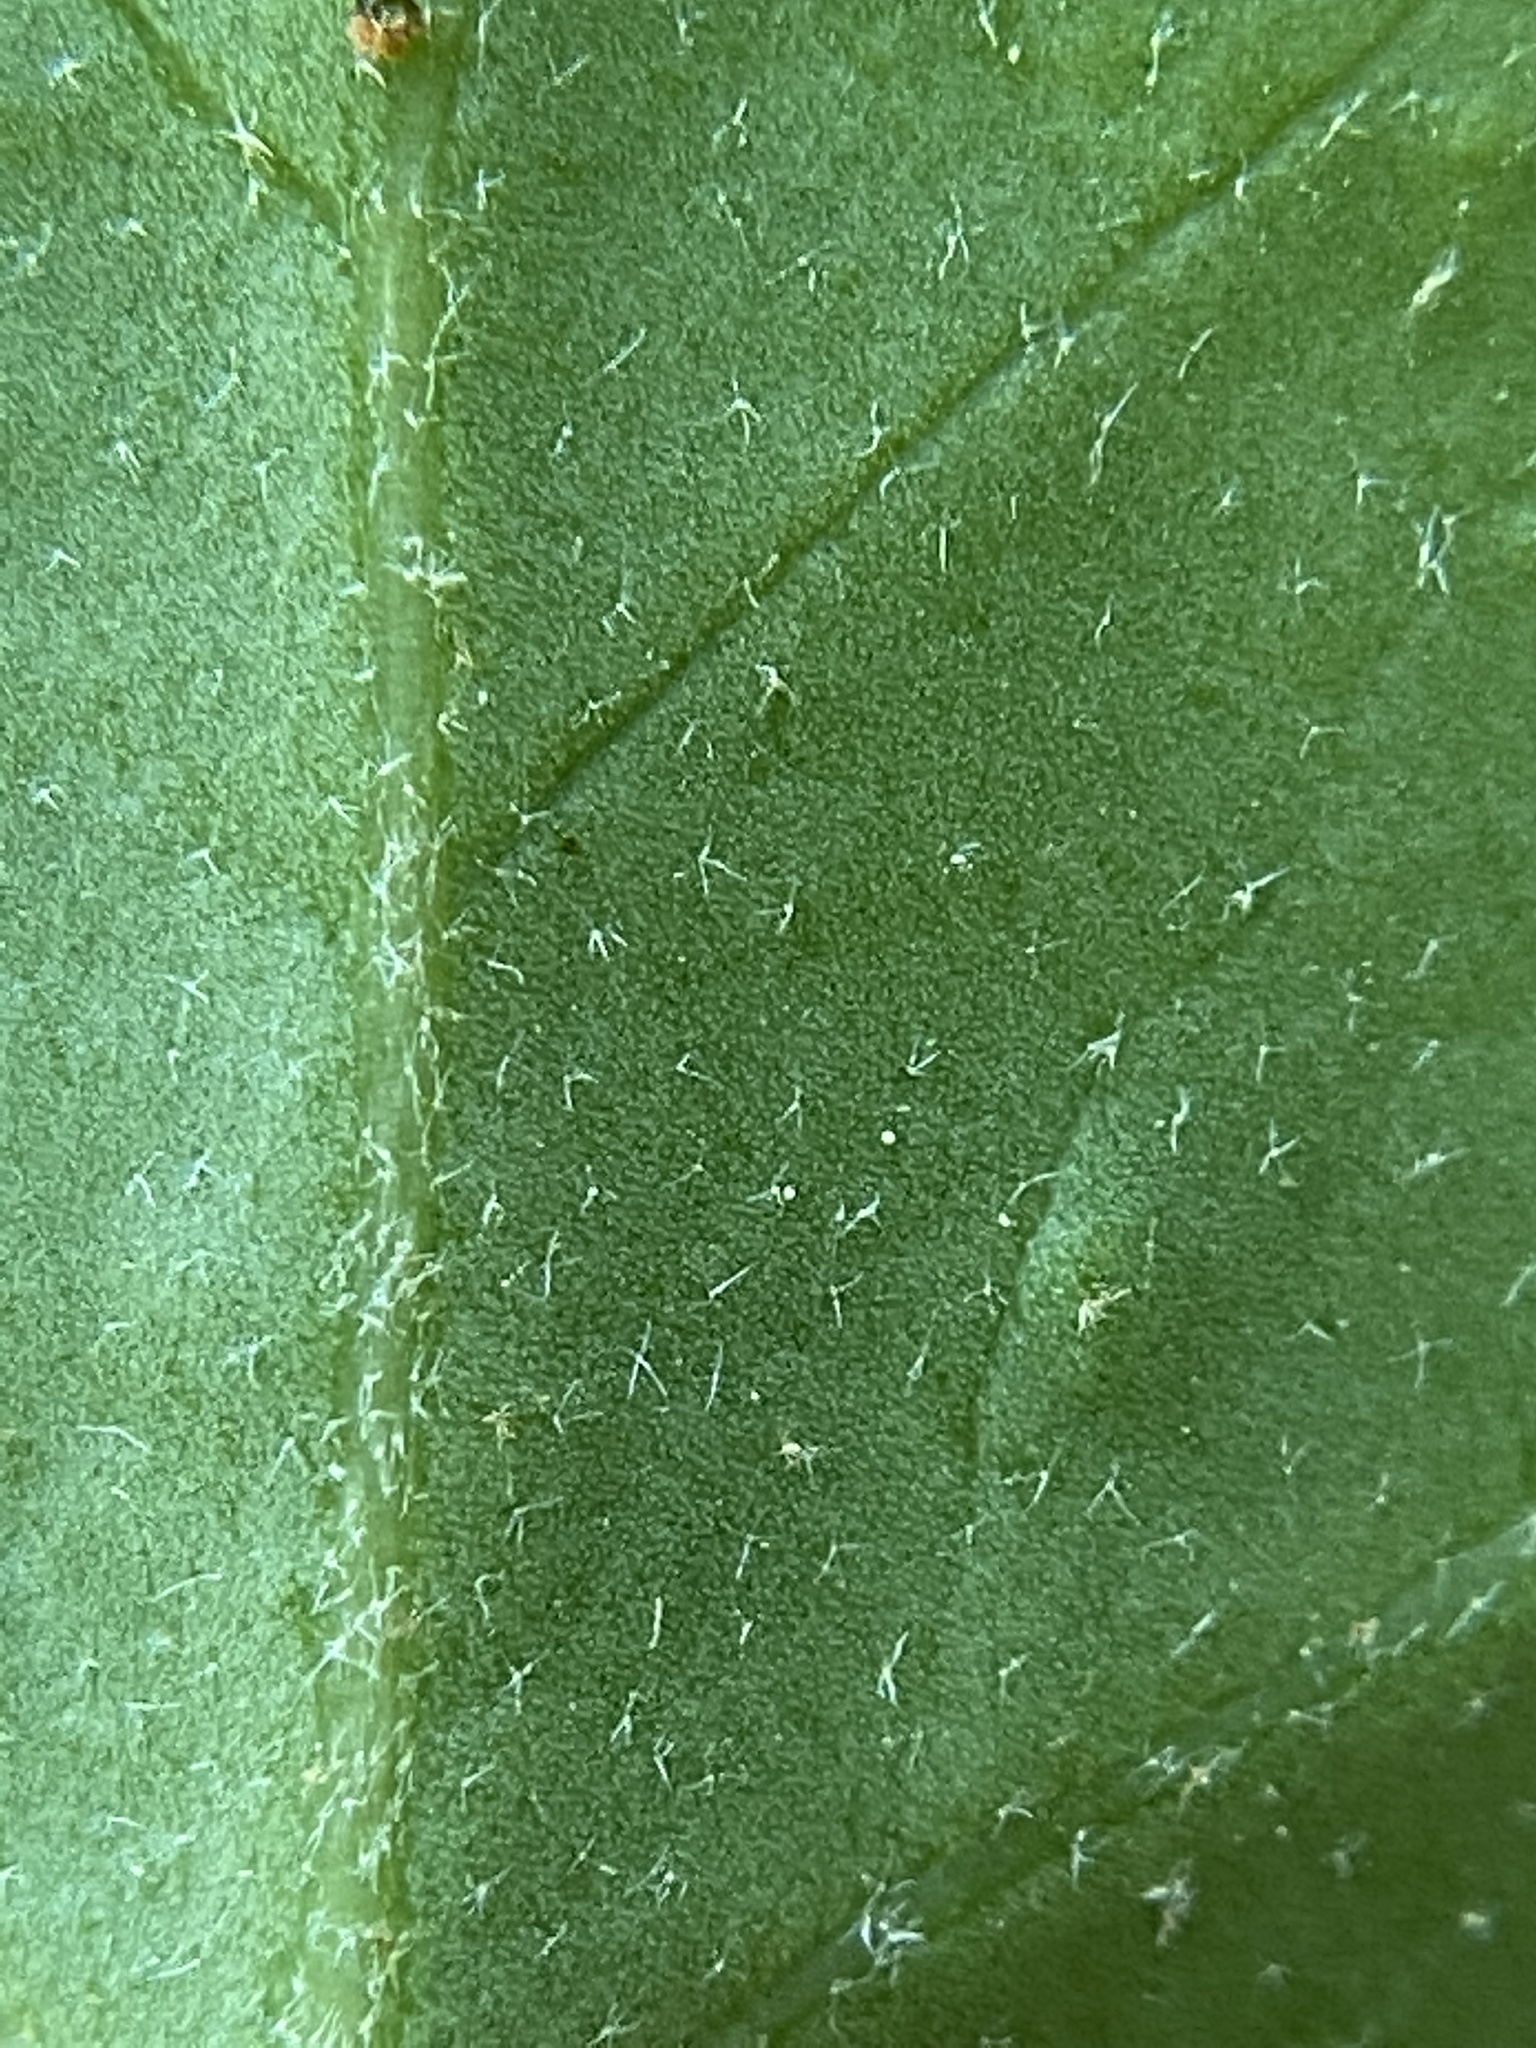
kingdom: Plantae
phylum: Tracheophyta
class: Magnoliopsida
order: Apiales
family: Araliaceae
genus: Hedera
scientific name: Hedera helix
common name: Ivy
